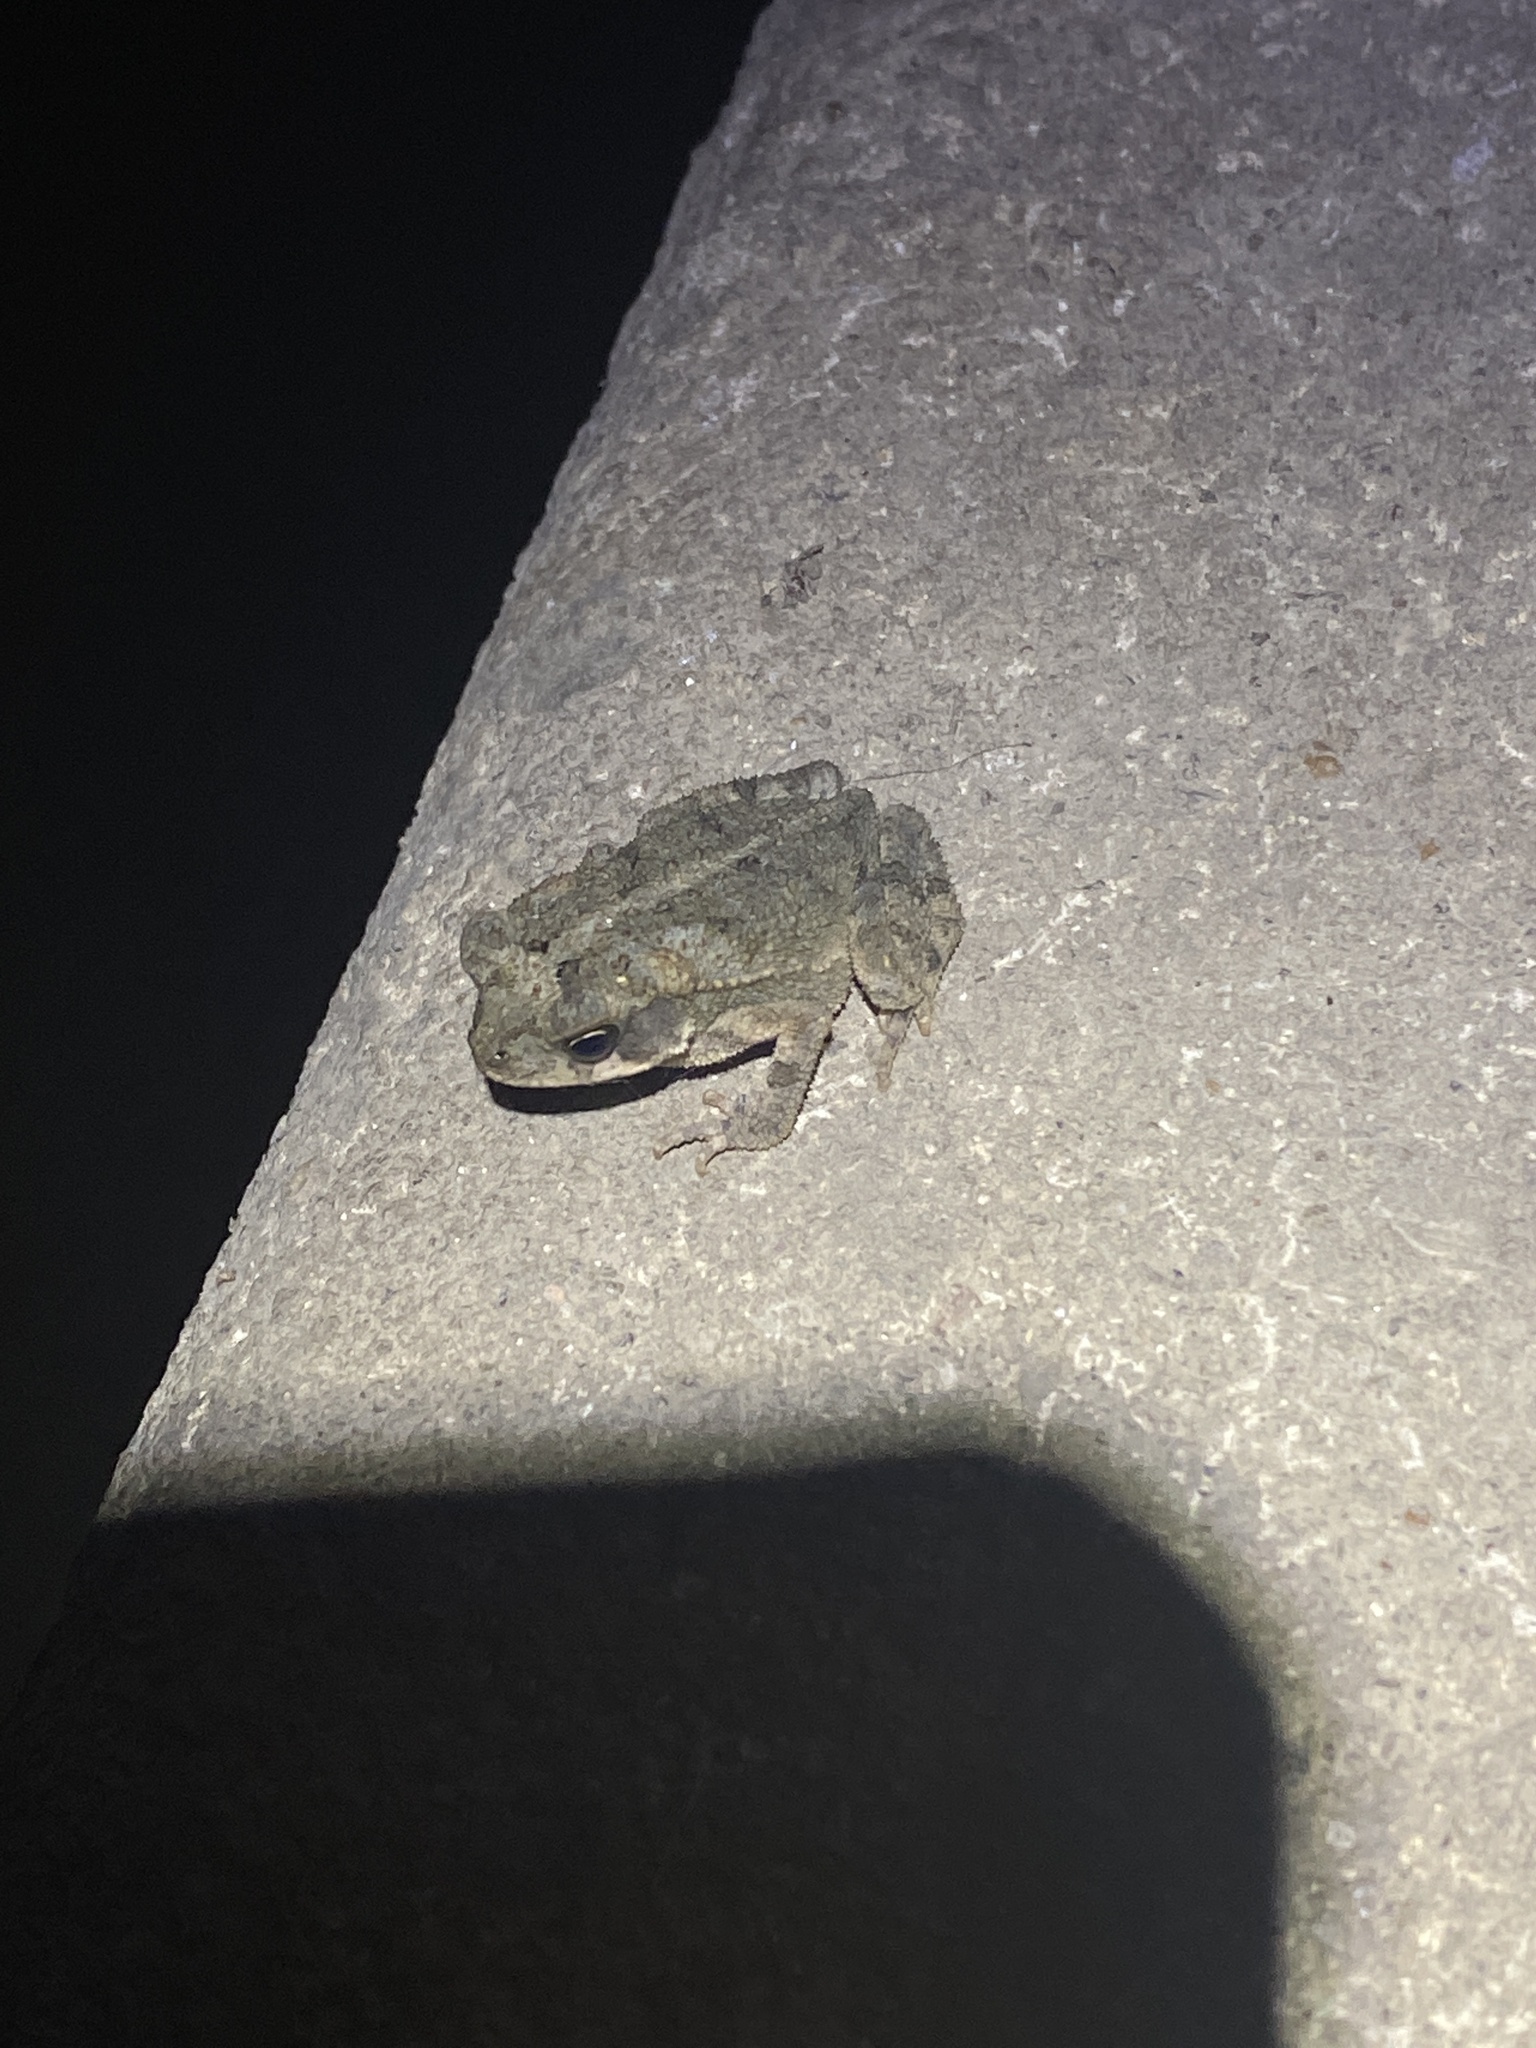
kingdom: Animalia
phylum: Chordata
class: Amphibia
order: Anura
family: Bufonidae
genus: Incilius
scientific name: Incilius nebulifer
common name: Gulf coast toad
